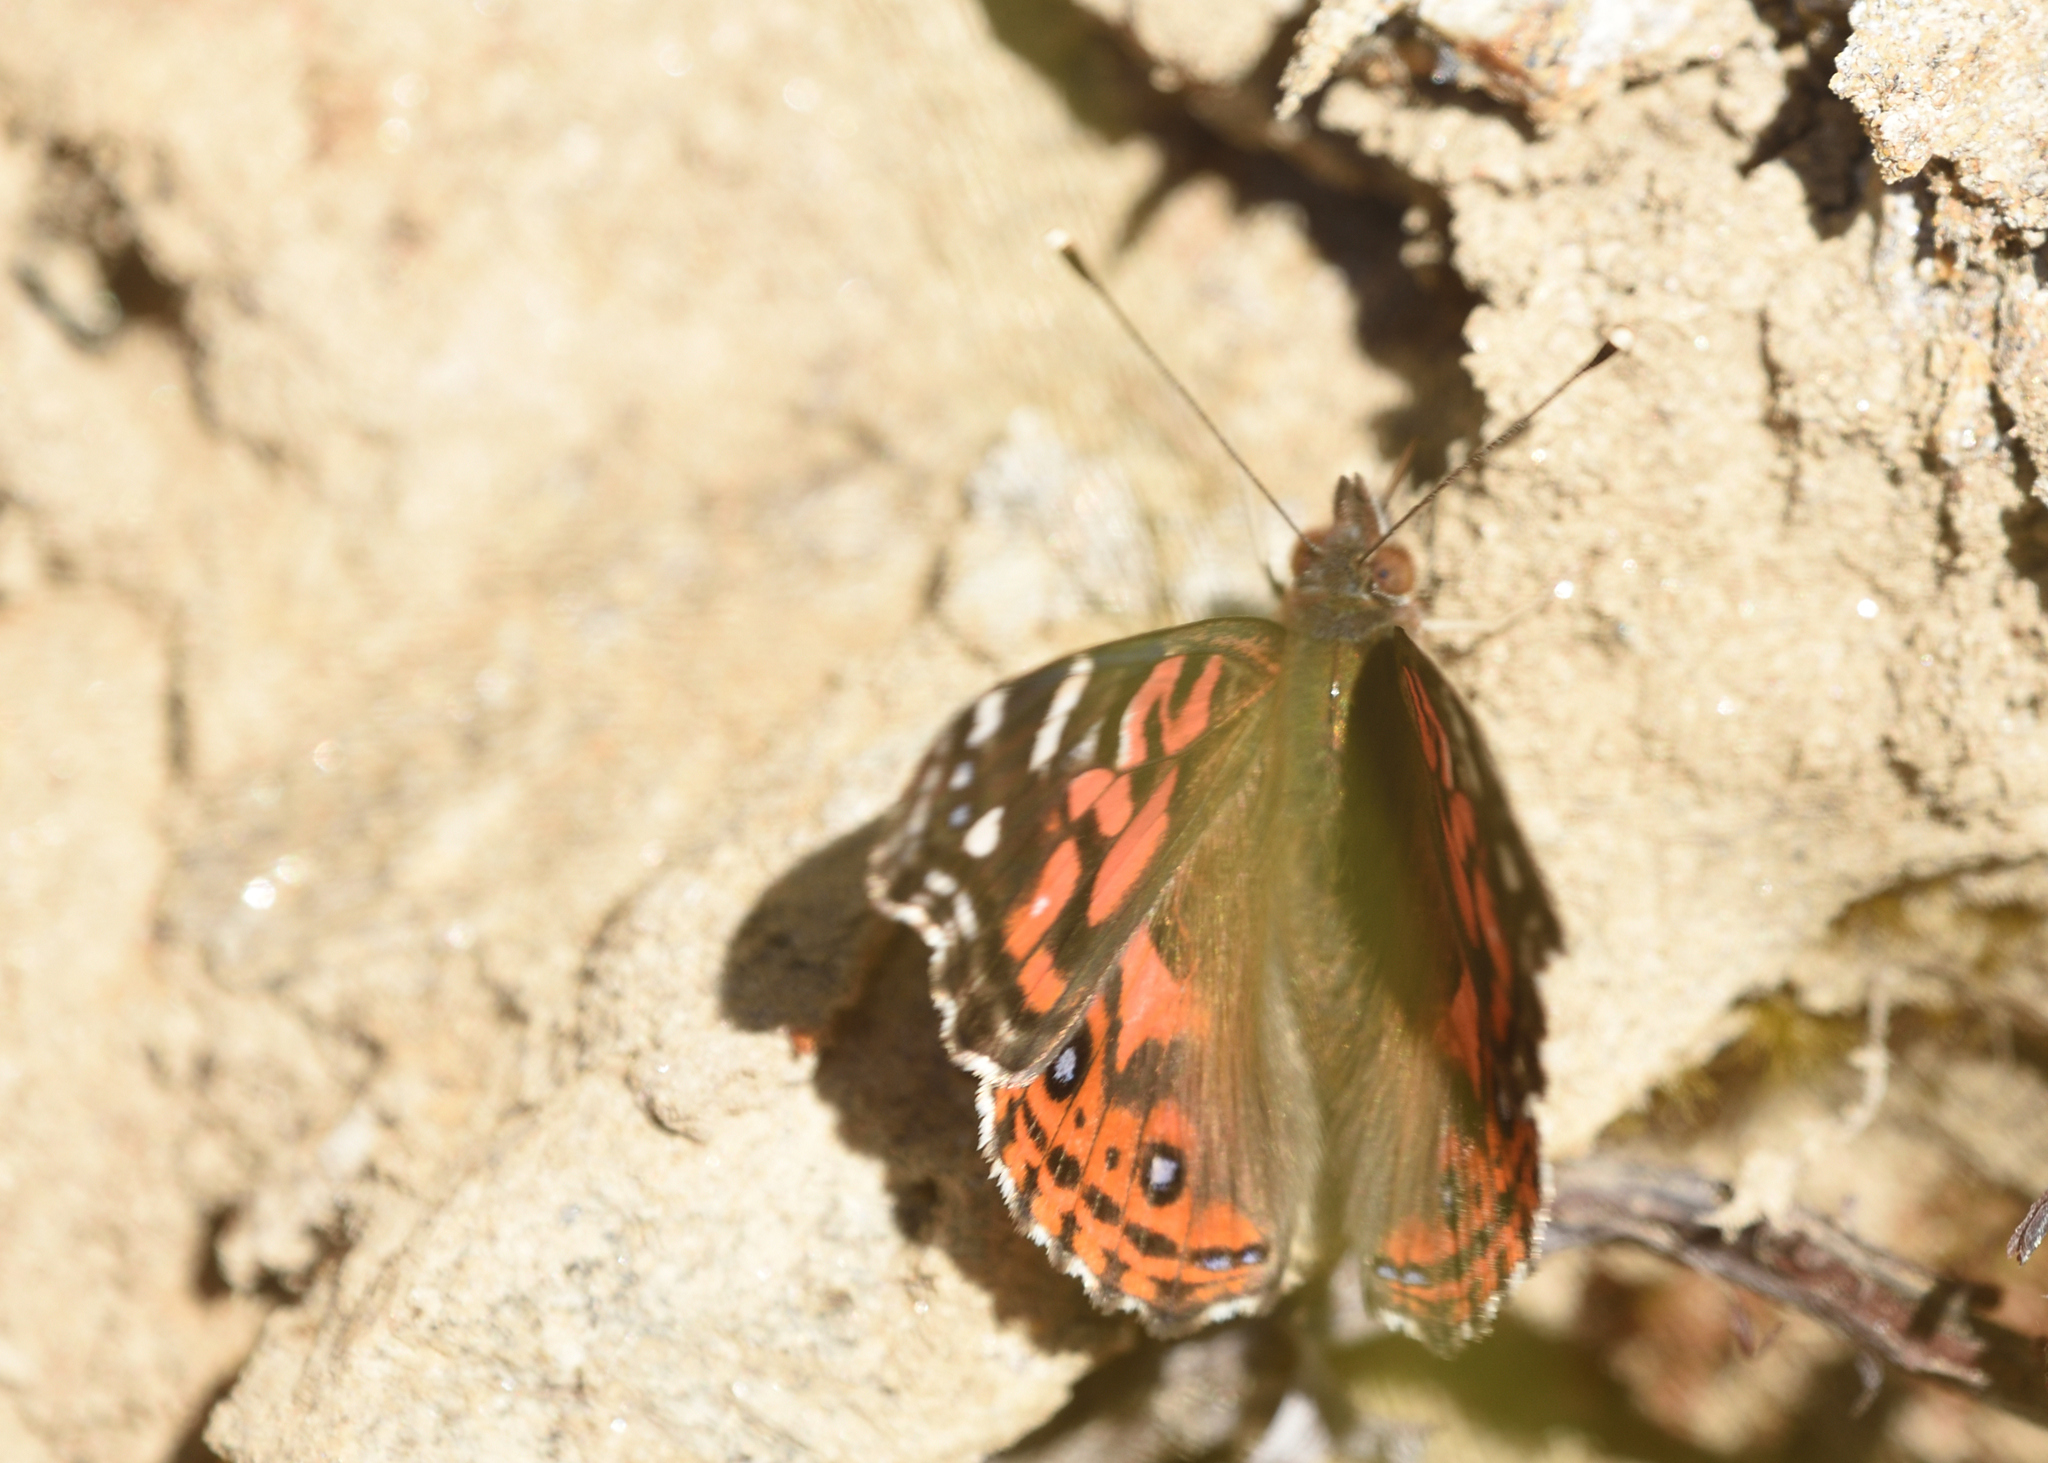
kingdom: Animalia
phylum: Arthropoda
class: Insecta
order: Lepidoptera
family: Nymphalidae
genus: Vanessa
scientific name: Vanessa braziliensis
